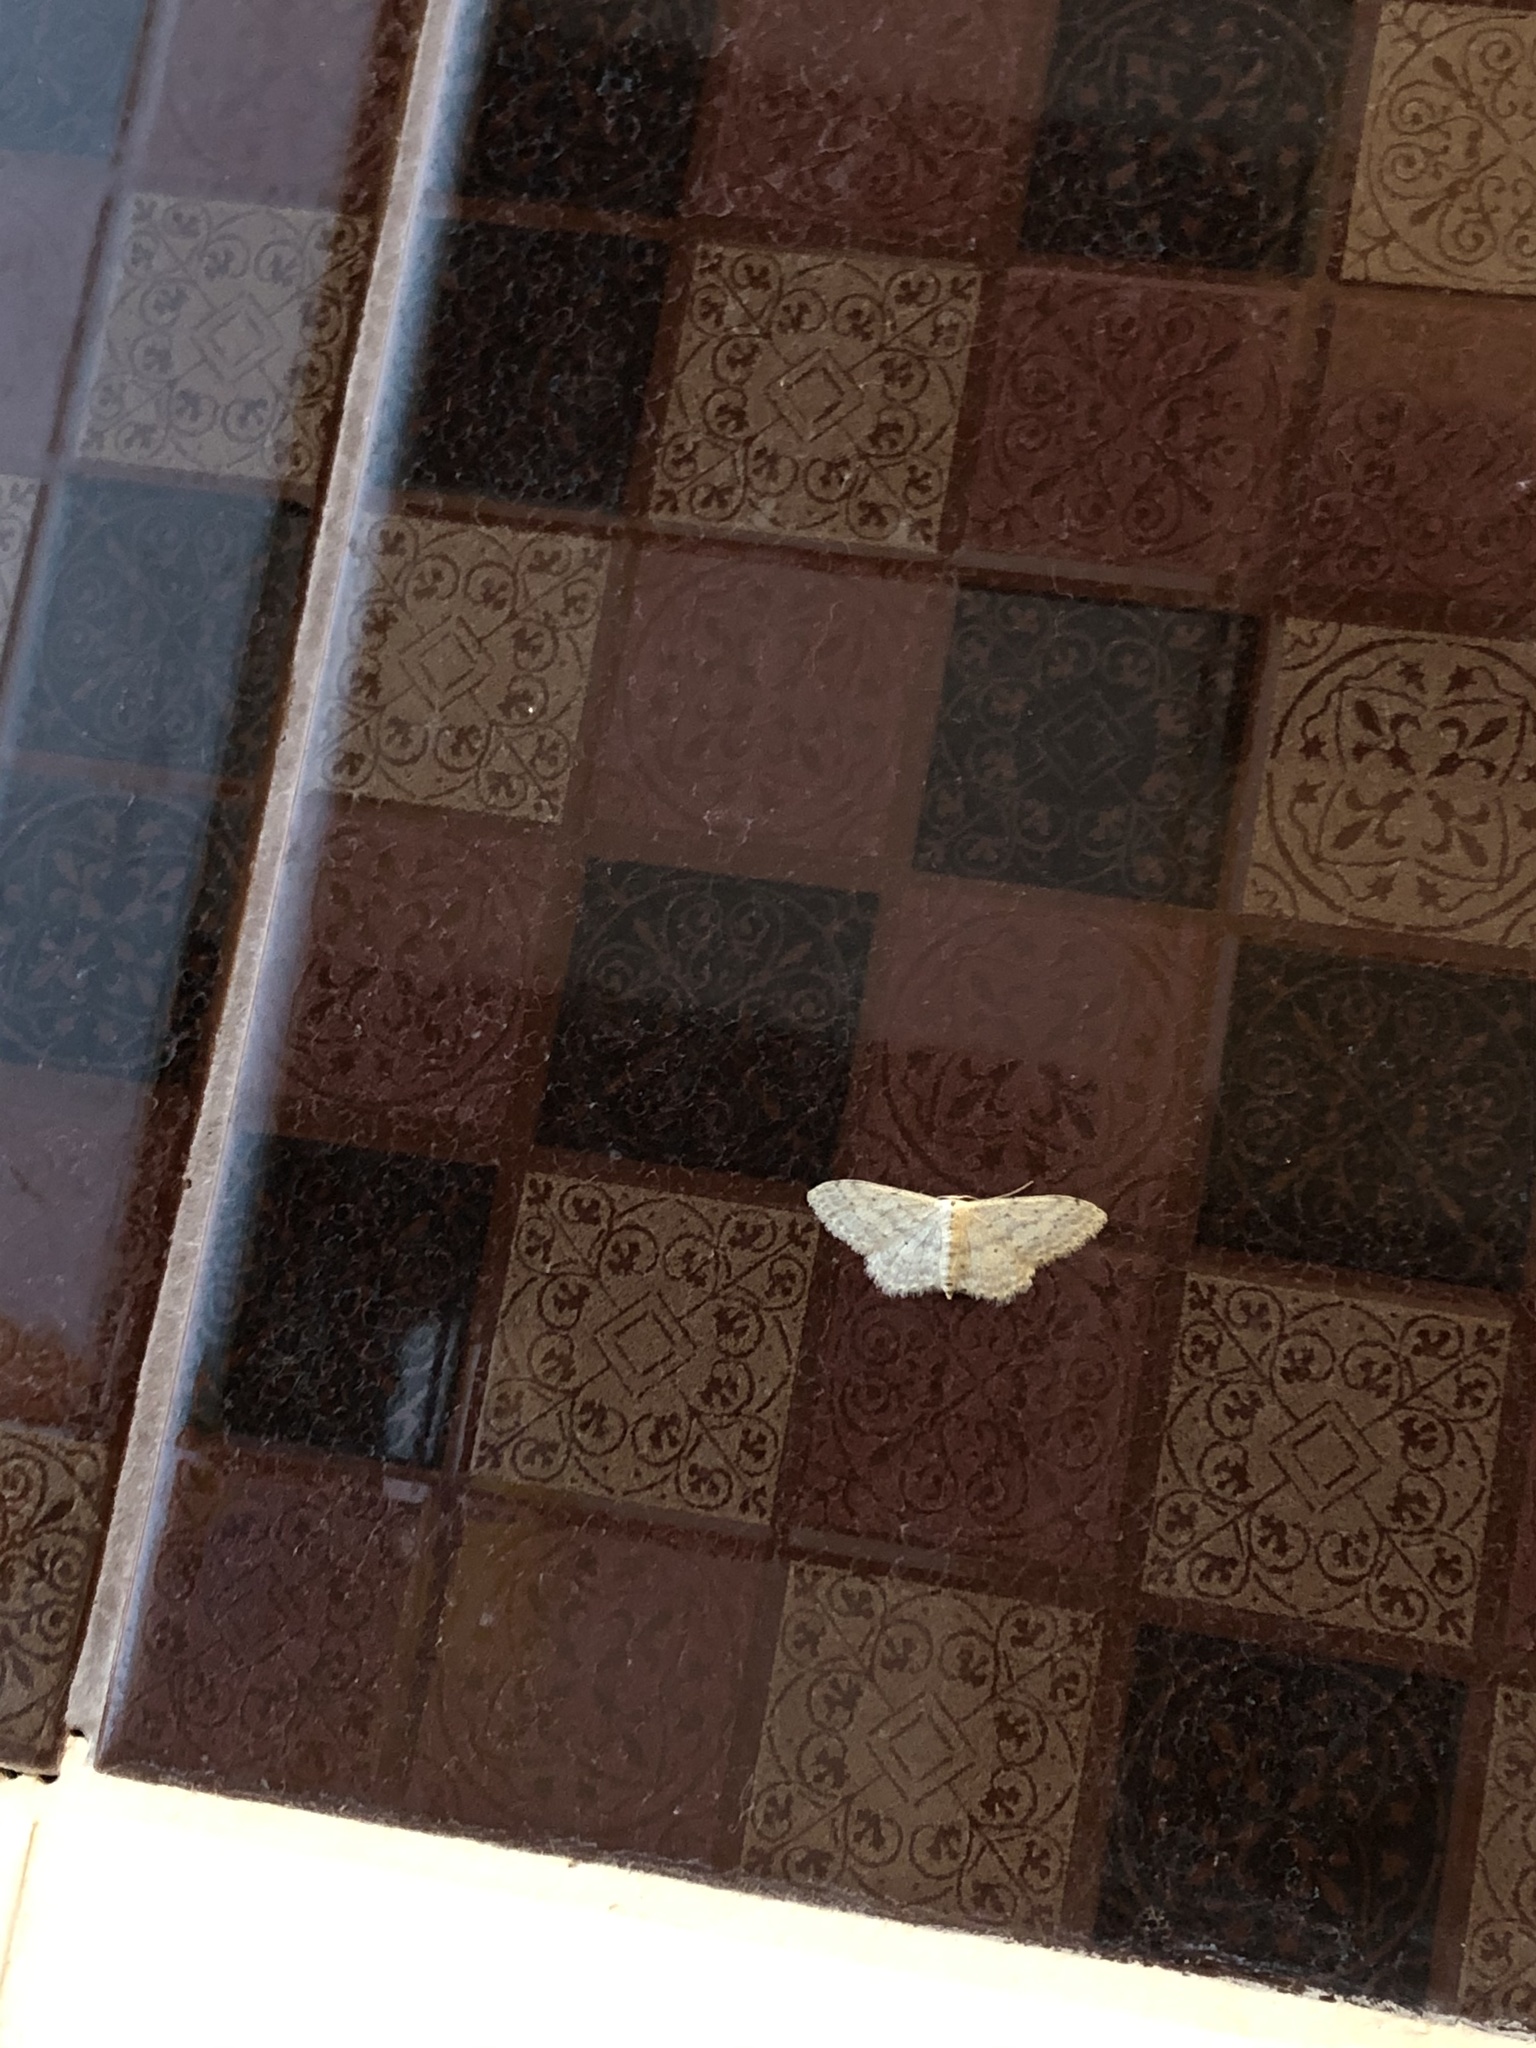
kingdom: Animalia
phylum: Arthropoda
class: Insecta
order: Lepidoptera
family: Geometridae
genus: Idaea
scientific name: Idaea seriata
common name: Small dusty wave
